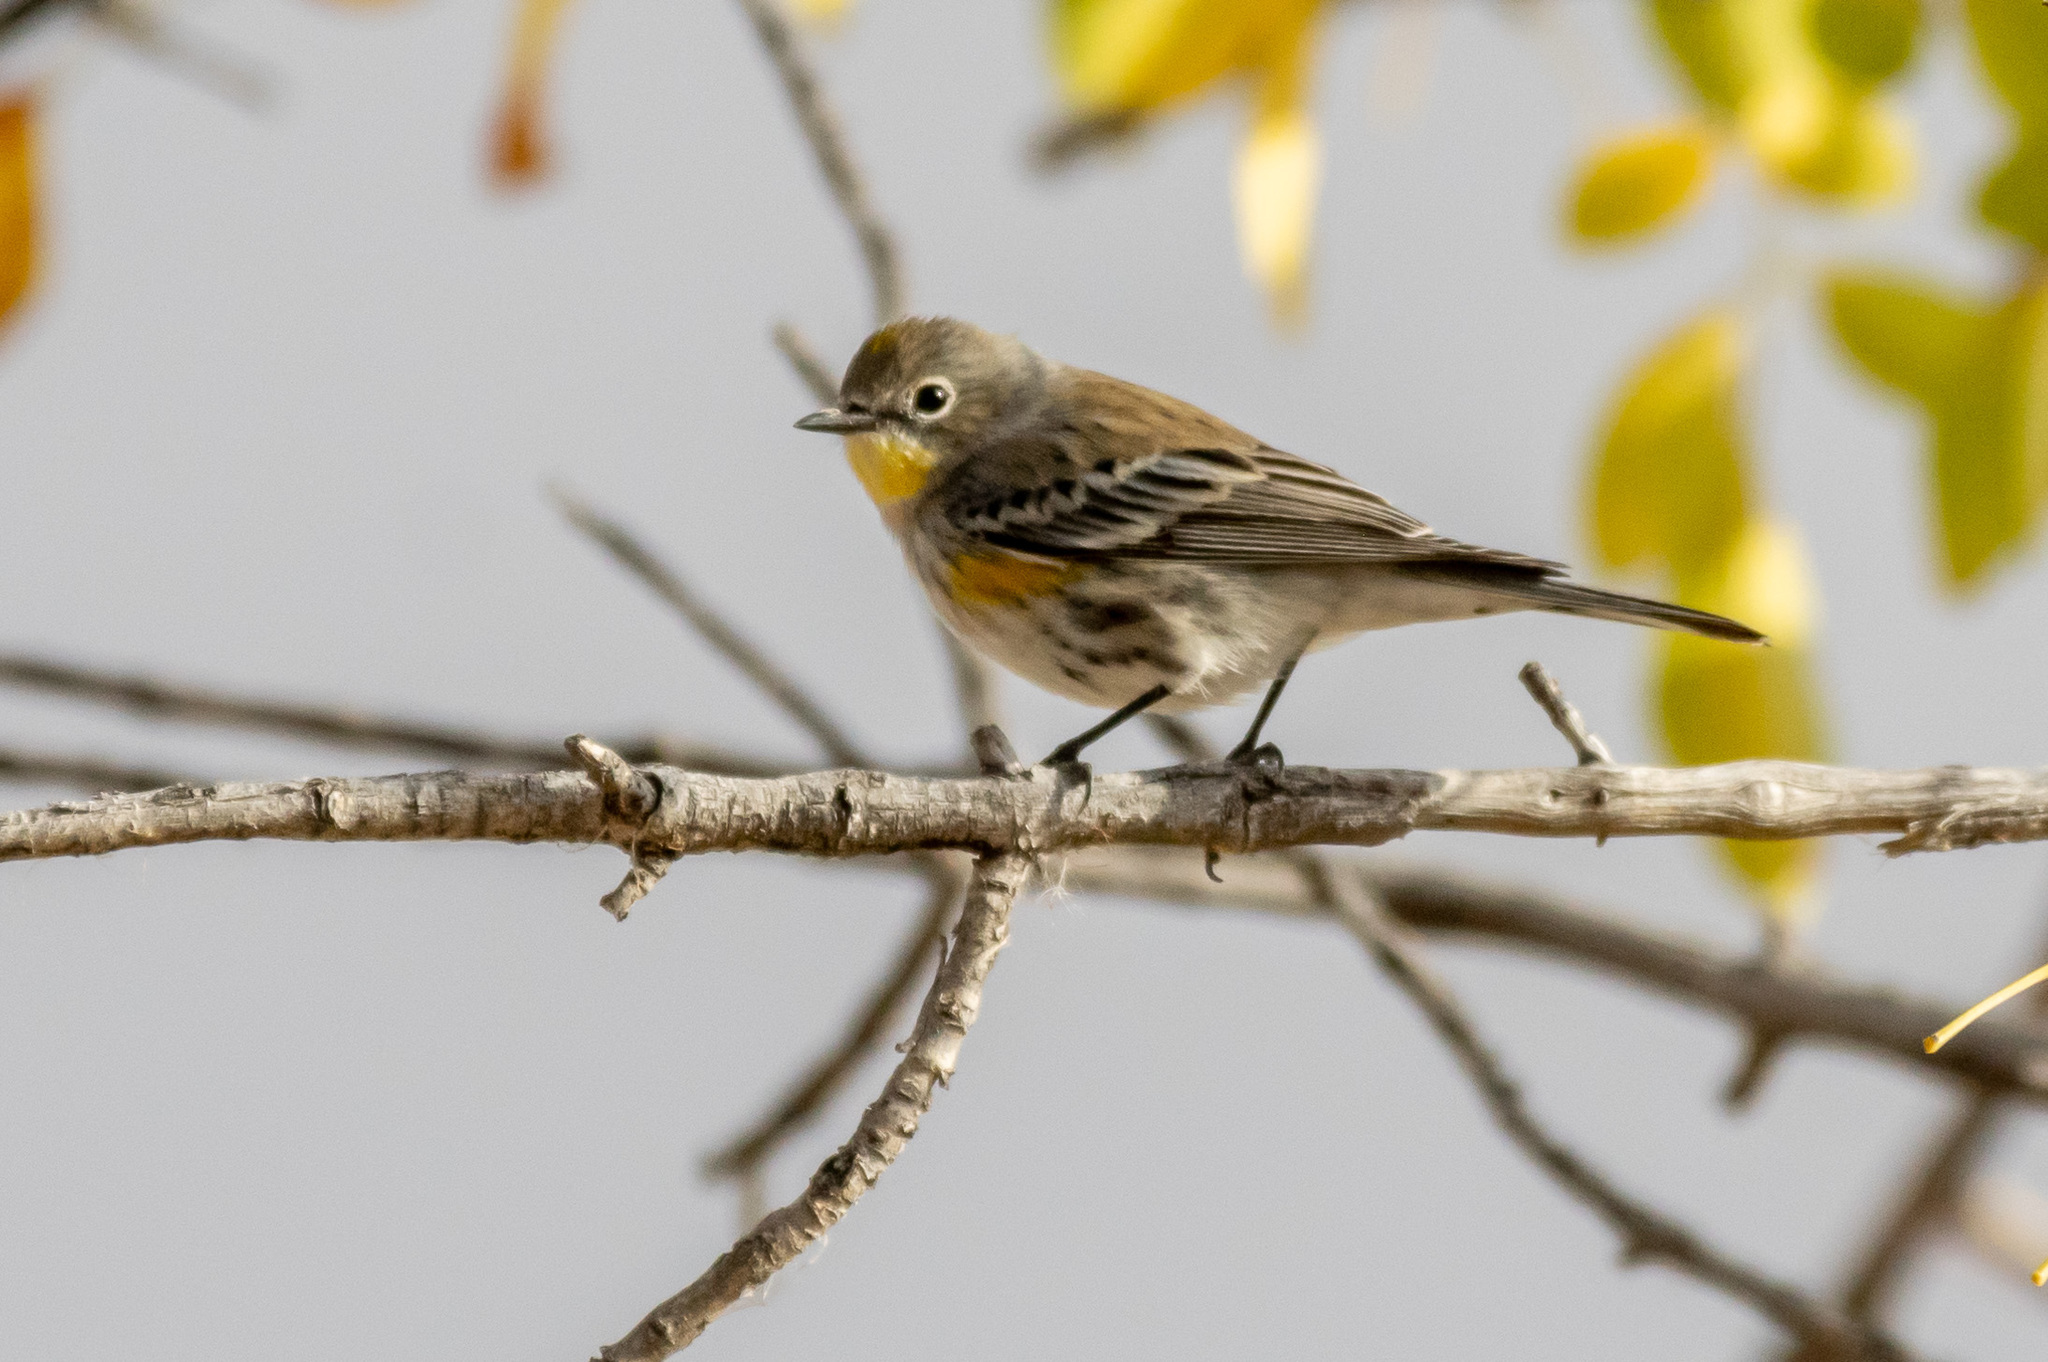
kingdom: Animalia
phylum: Chordata
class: Aves
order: Passeriformes
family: Parulidae
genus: Setophaga
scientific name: Setophaga auduboni
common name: Audubon's warbler
